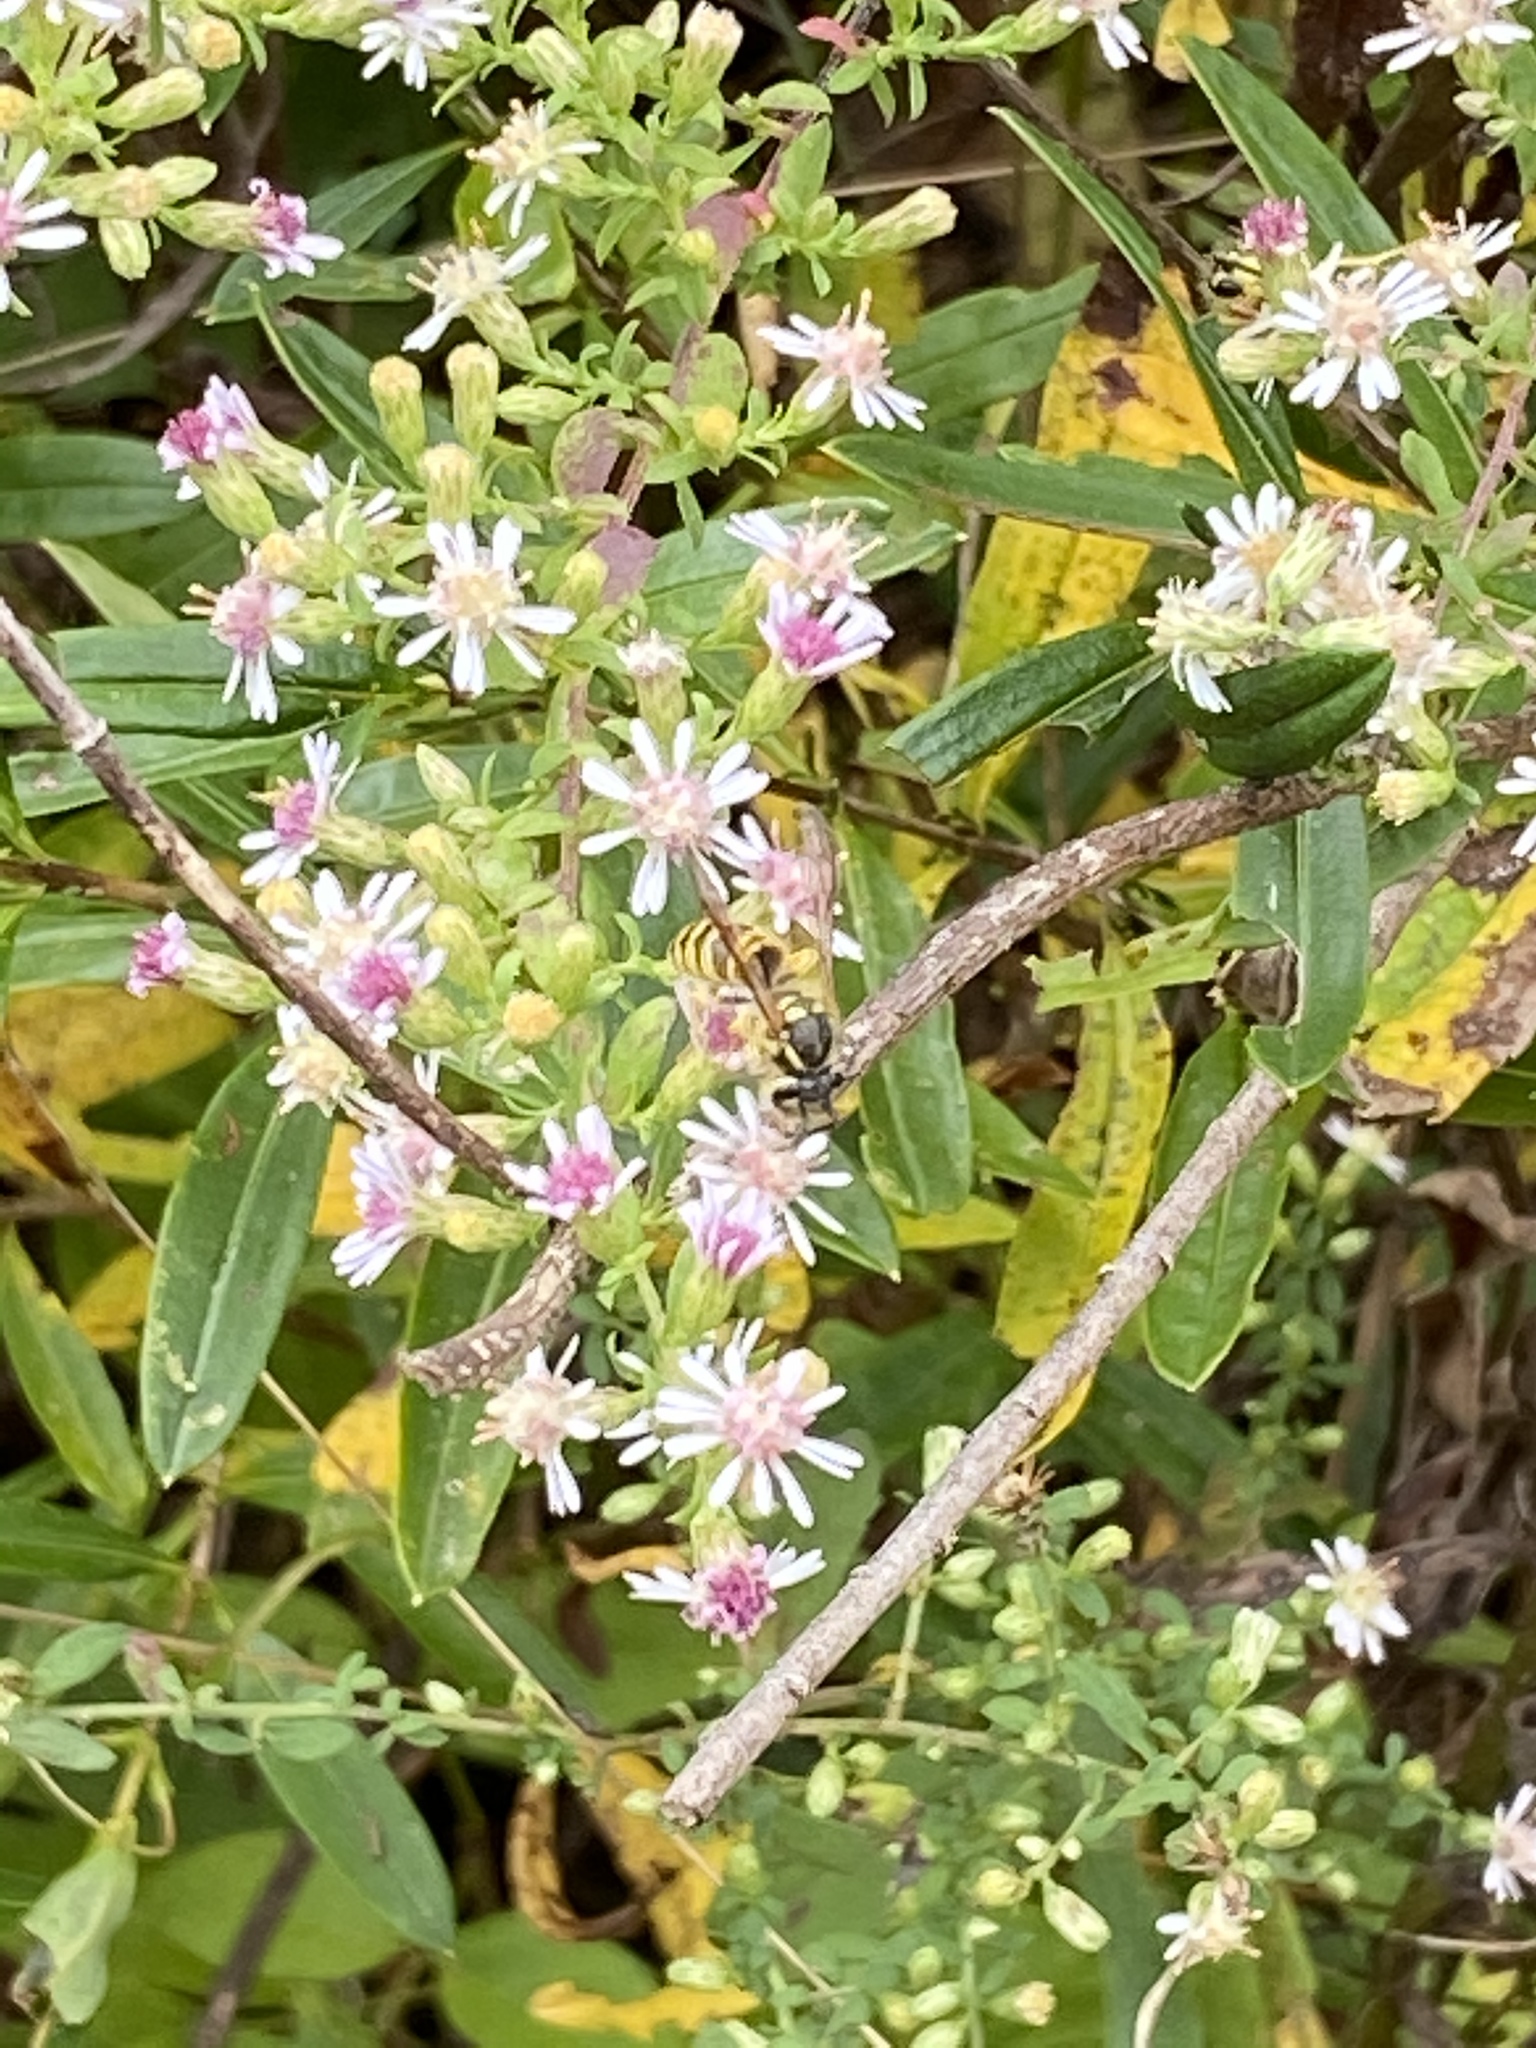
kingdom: Animalia
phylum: Arthropoda
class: Insecta
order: Hymenoptera
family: Vespidae
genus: Vespula
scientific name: Vespula maculifrons
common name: Eastern yellowjacket
